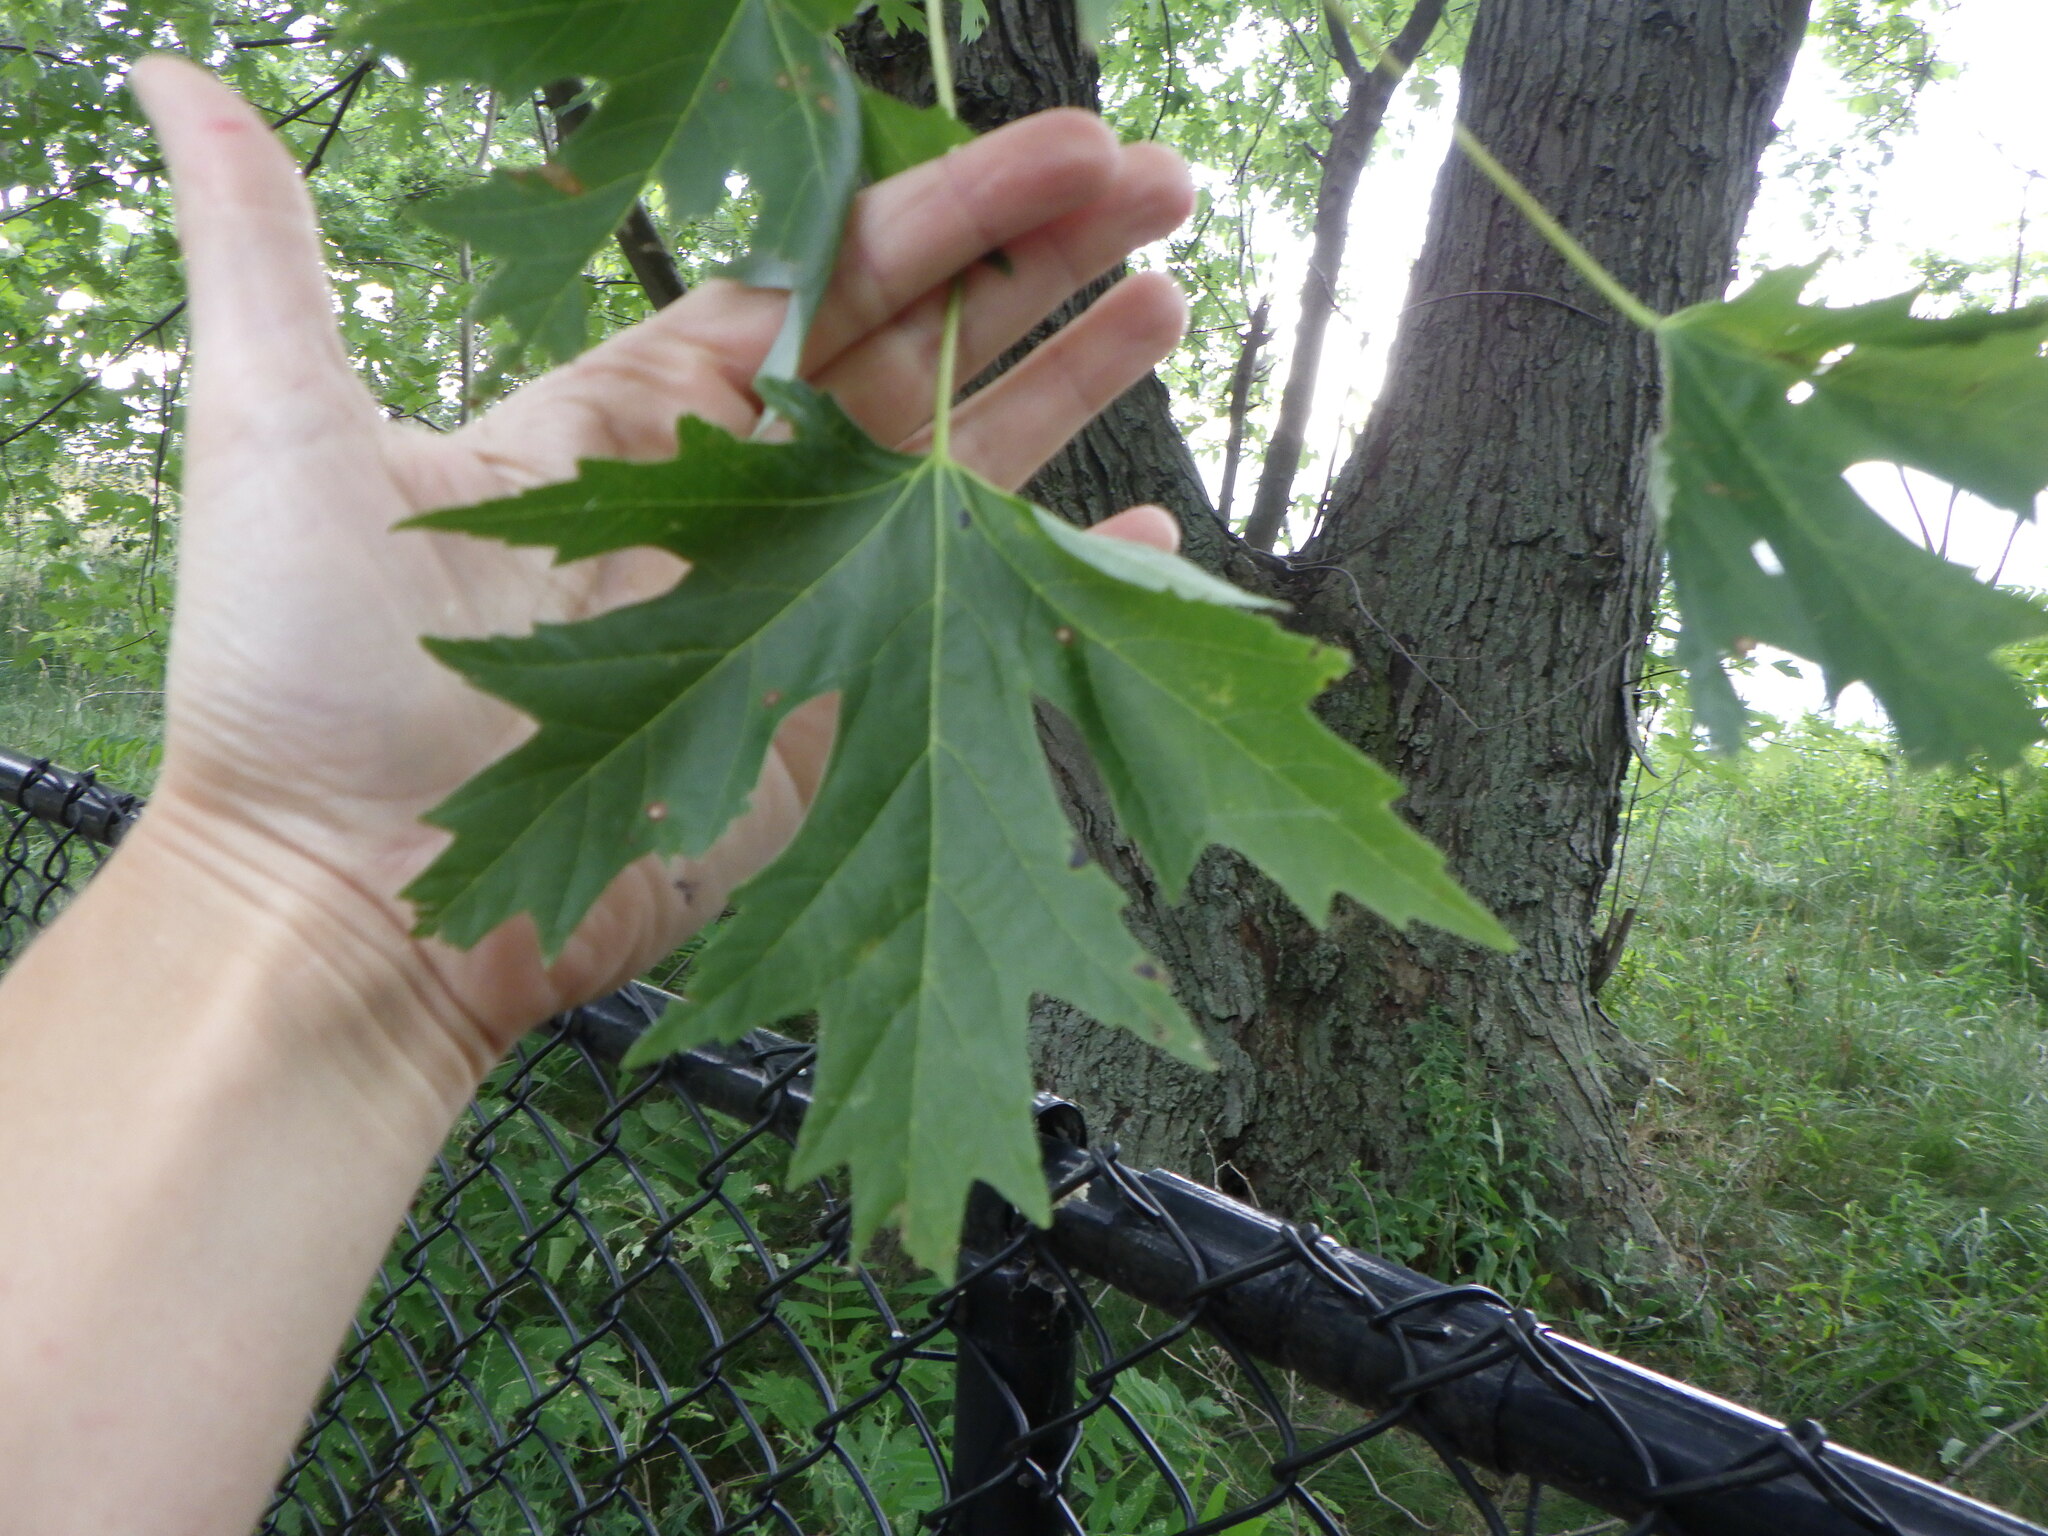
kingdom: Plantae
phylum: Tracheophyta
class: Magnoliopsida
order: Sapindales
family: Sapindaceae
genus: Acer
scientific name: Acer saccharinum
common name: Silver maple
